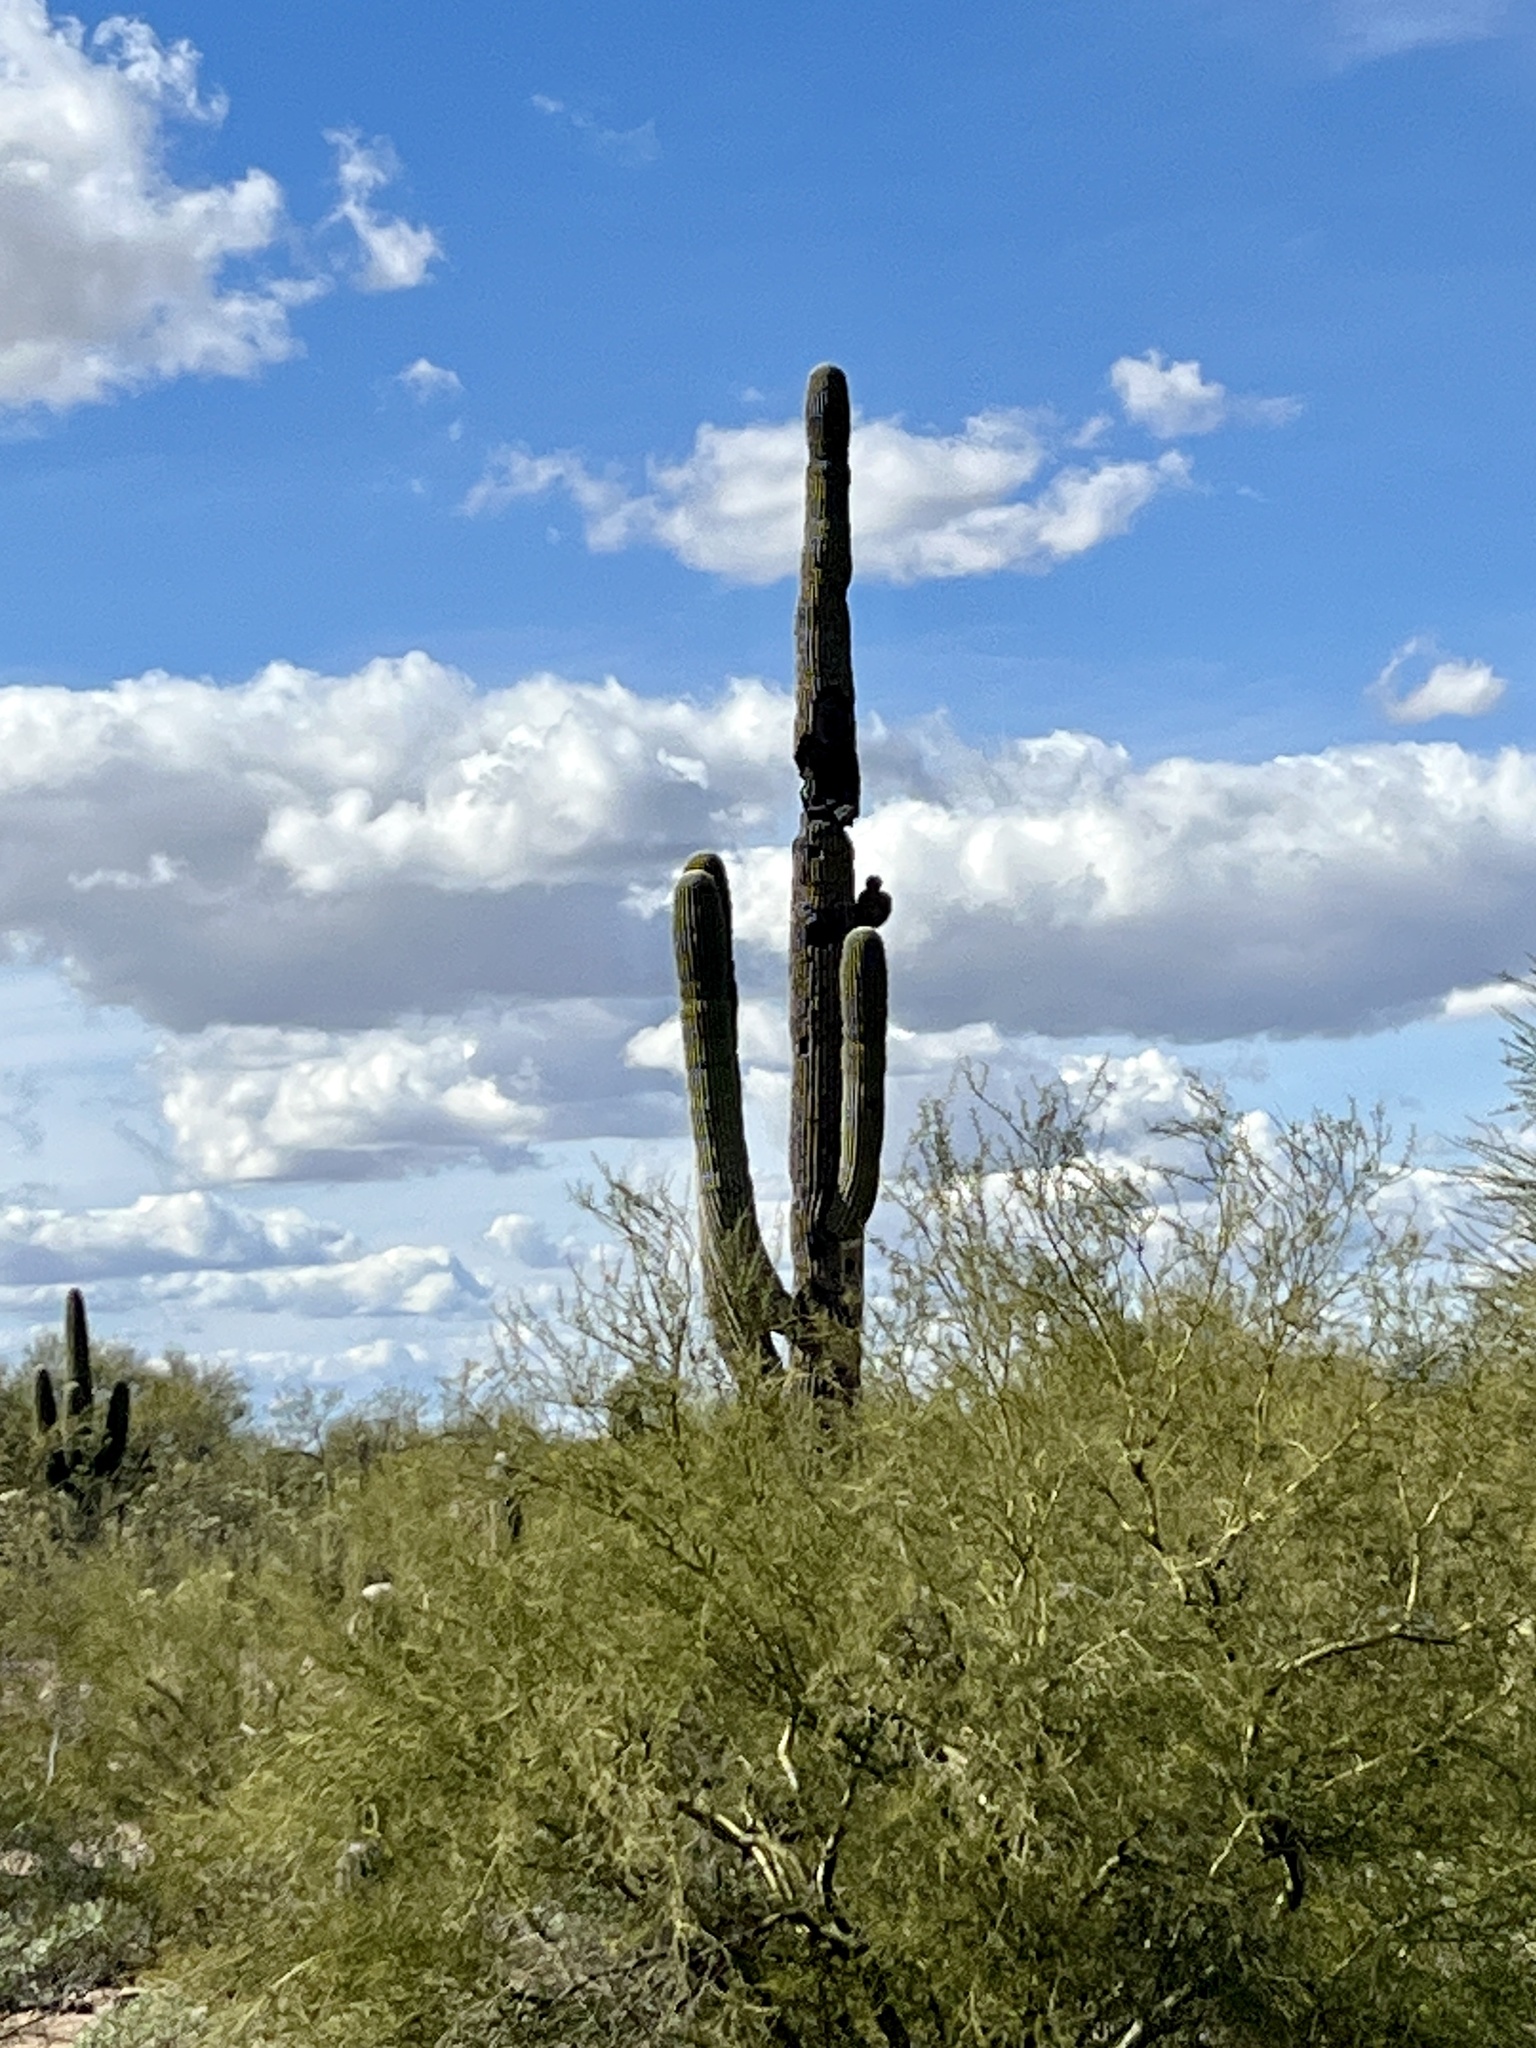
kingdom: Plantae
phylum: Tracheophyta
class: Magnoliopsida
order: Caryophyllales
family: Cactaceae
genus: Carnegiea
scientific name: Carnegiea gigantea
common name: Saguaro
